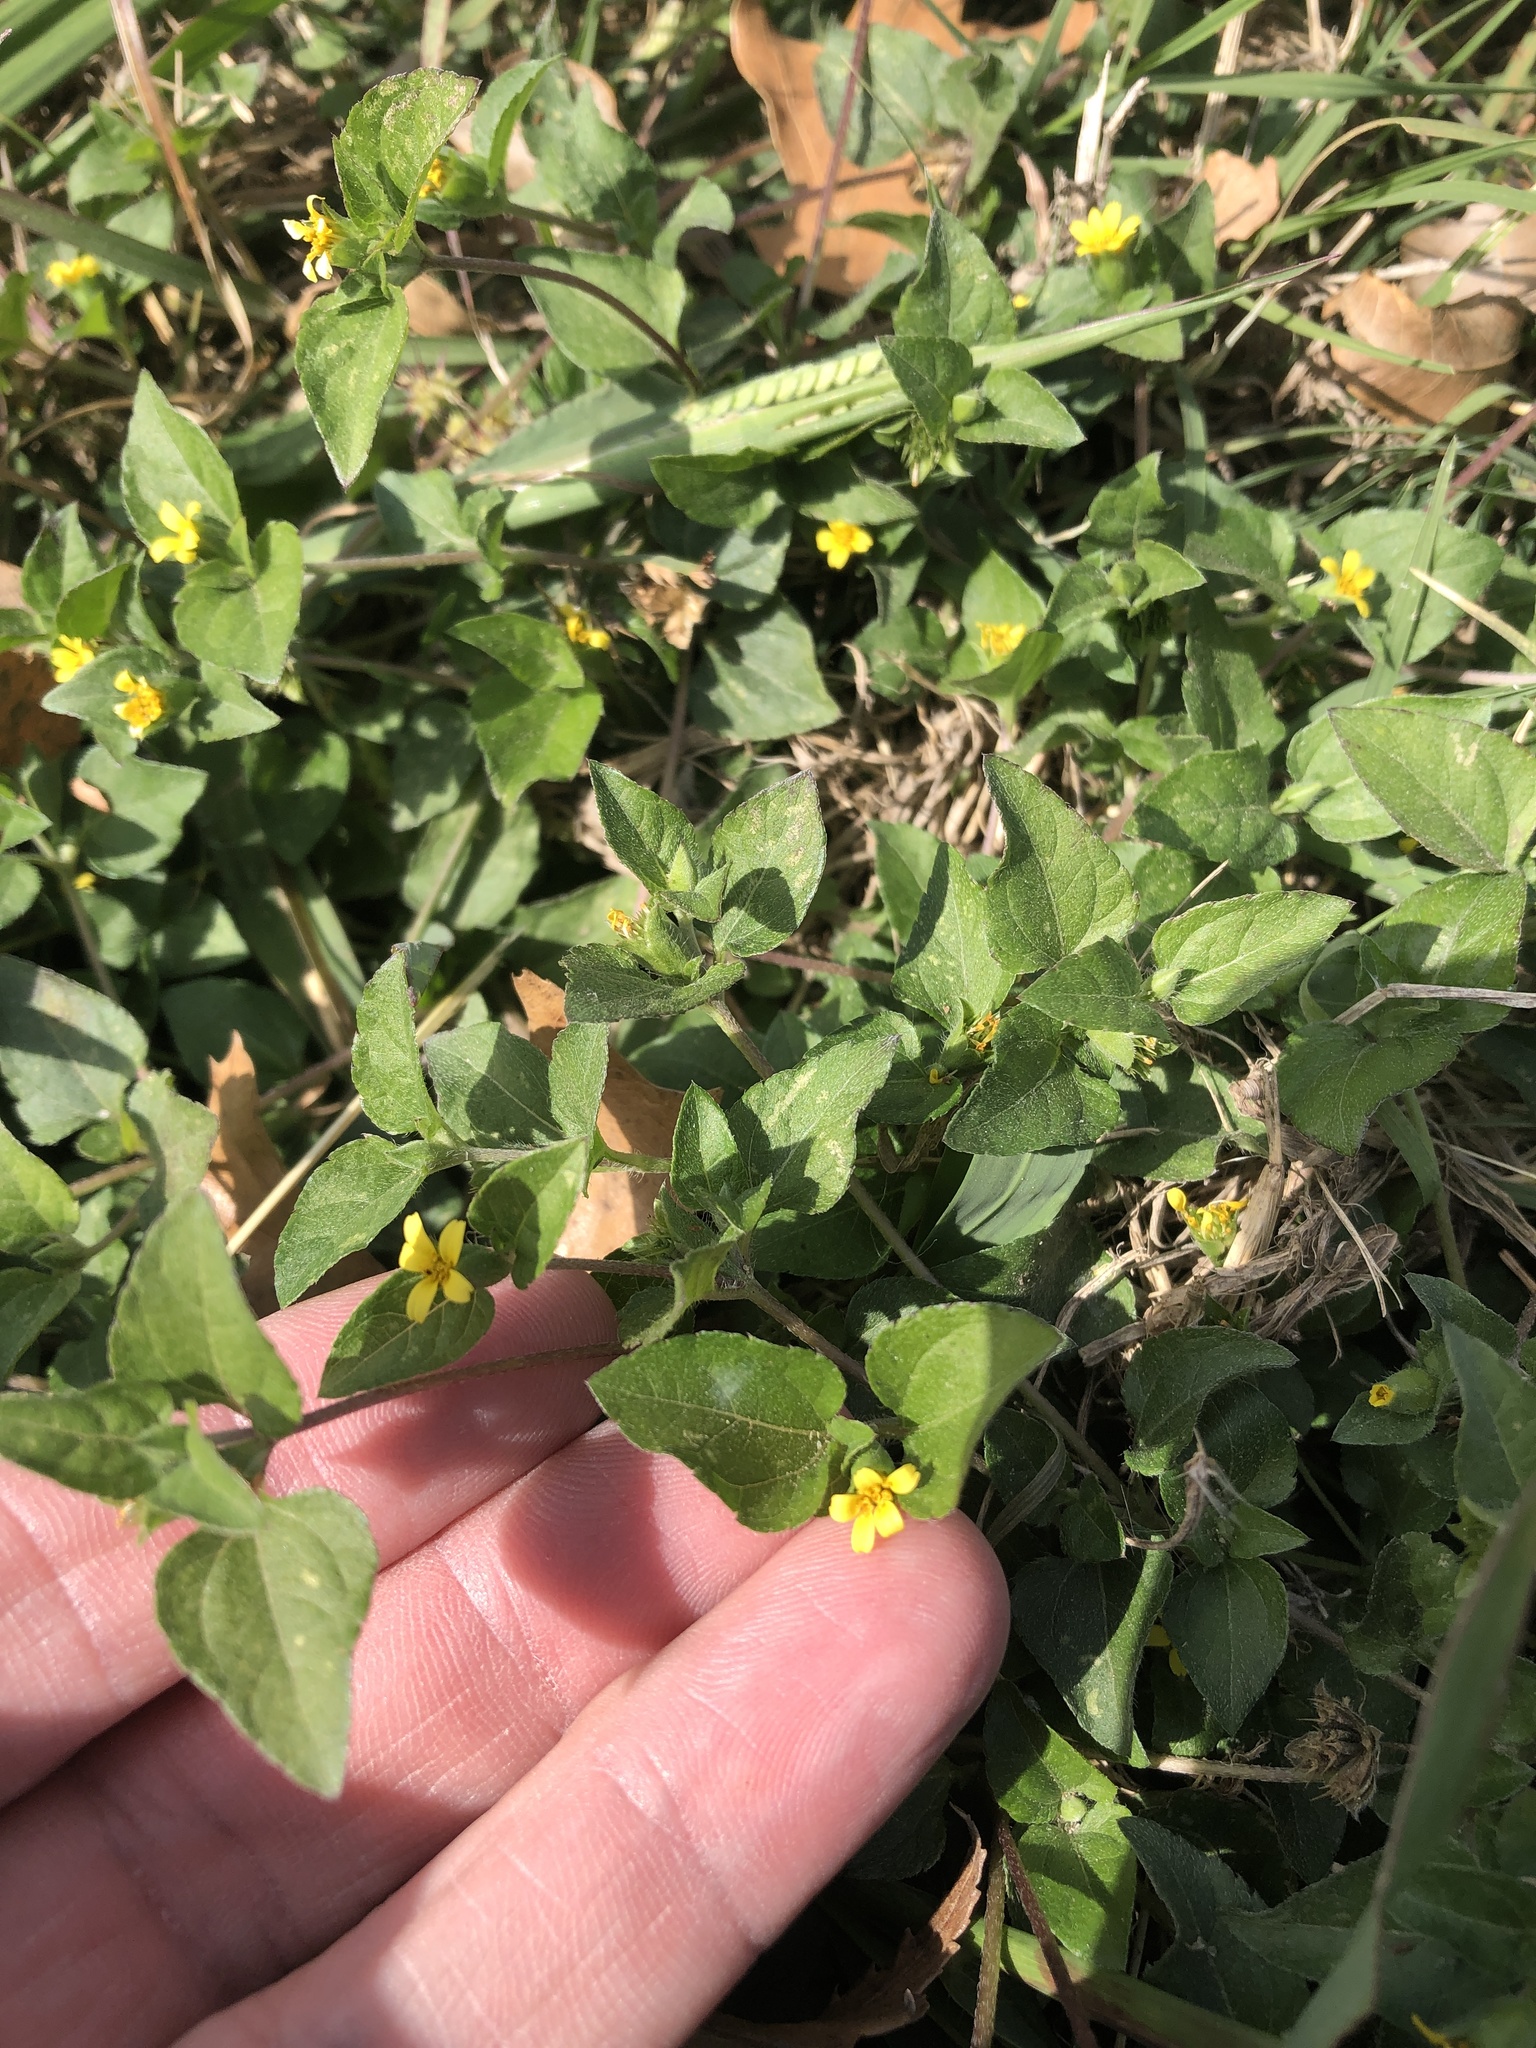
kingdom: Plantae
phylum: Tracheophyta
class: Magnoliopsida
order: Asterales
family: Asteraceae
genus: Calyptocarpus
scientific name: Calyptocarpus vialis
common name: Straggler daisy
